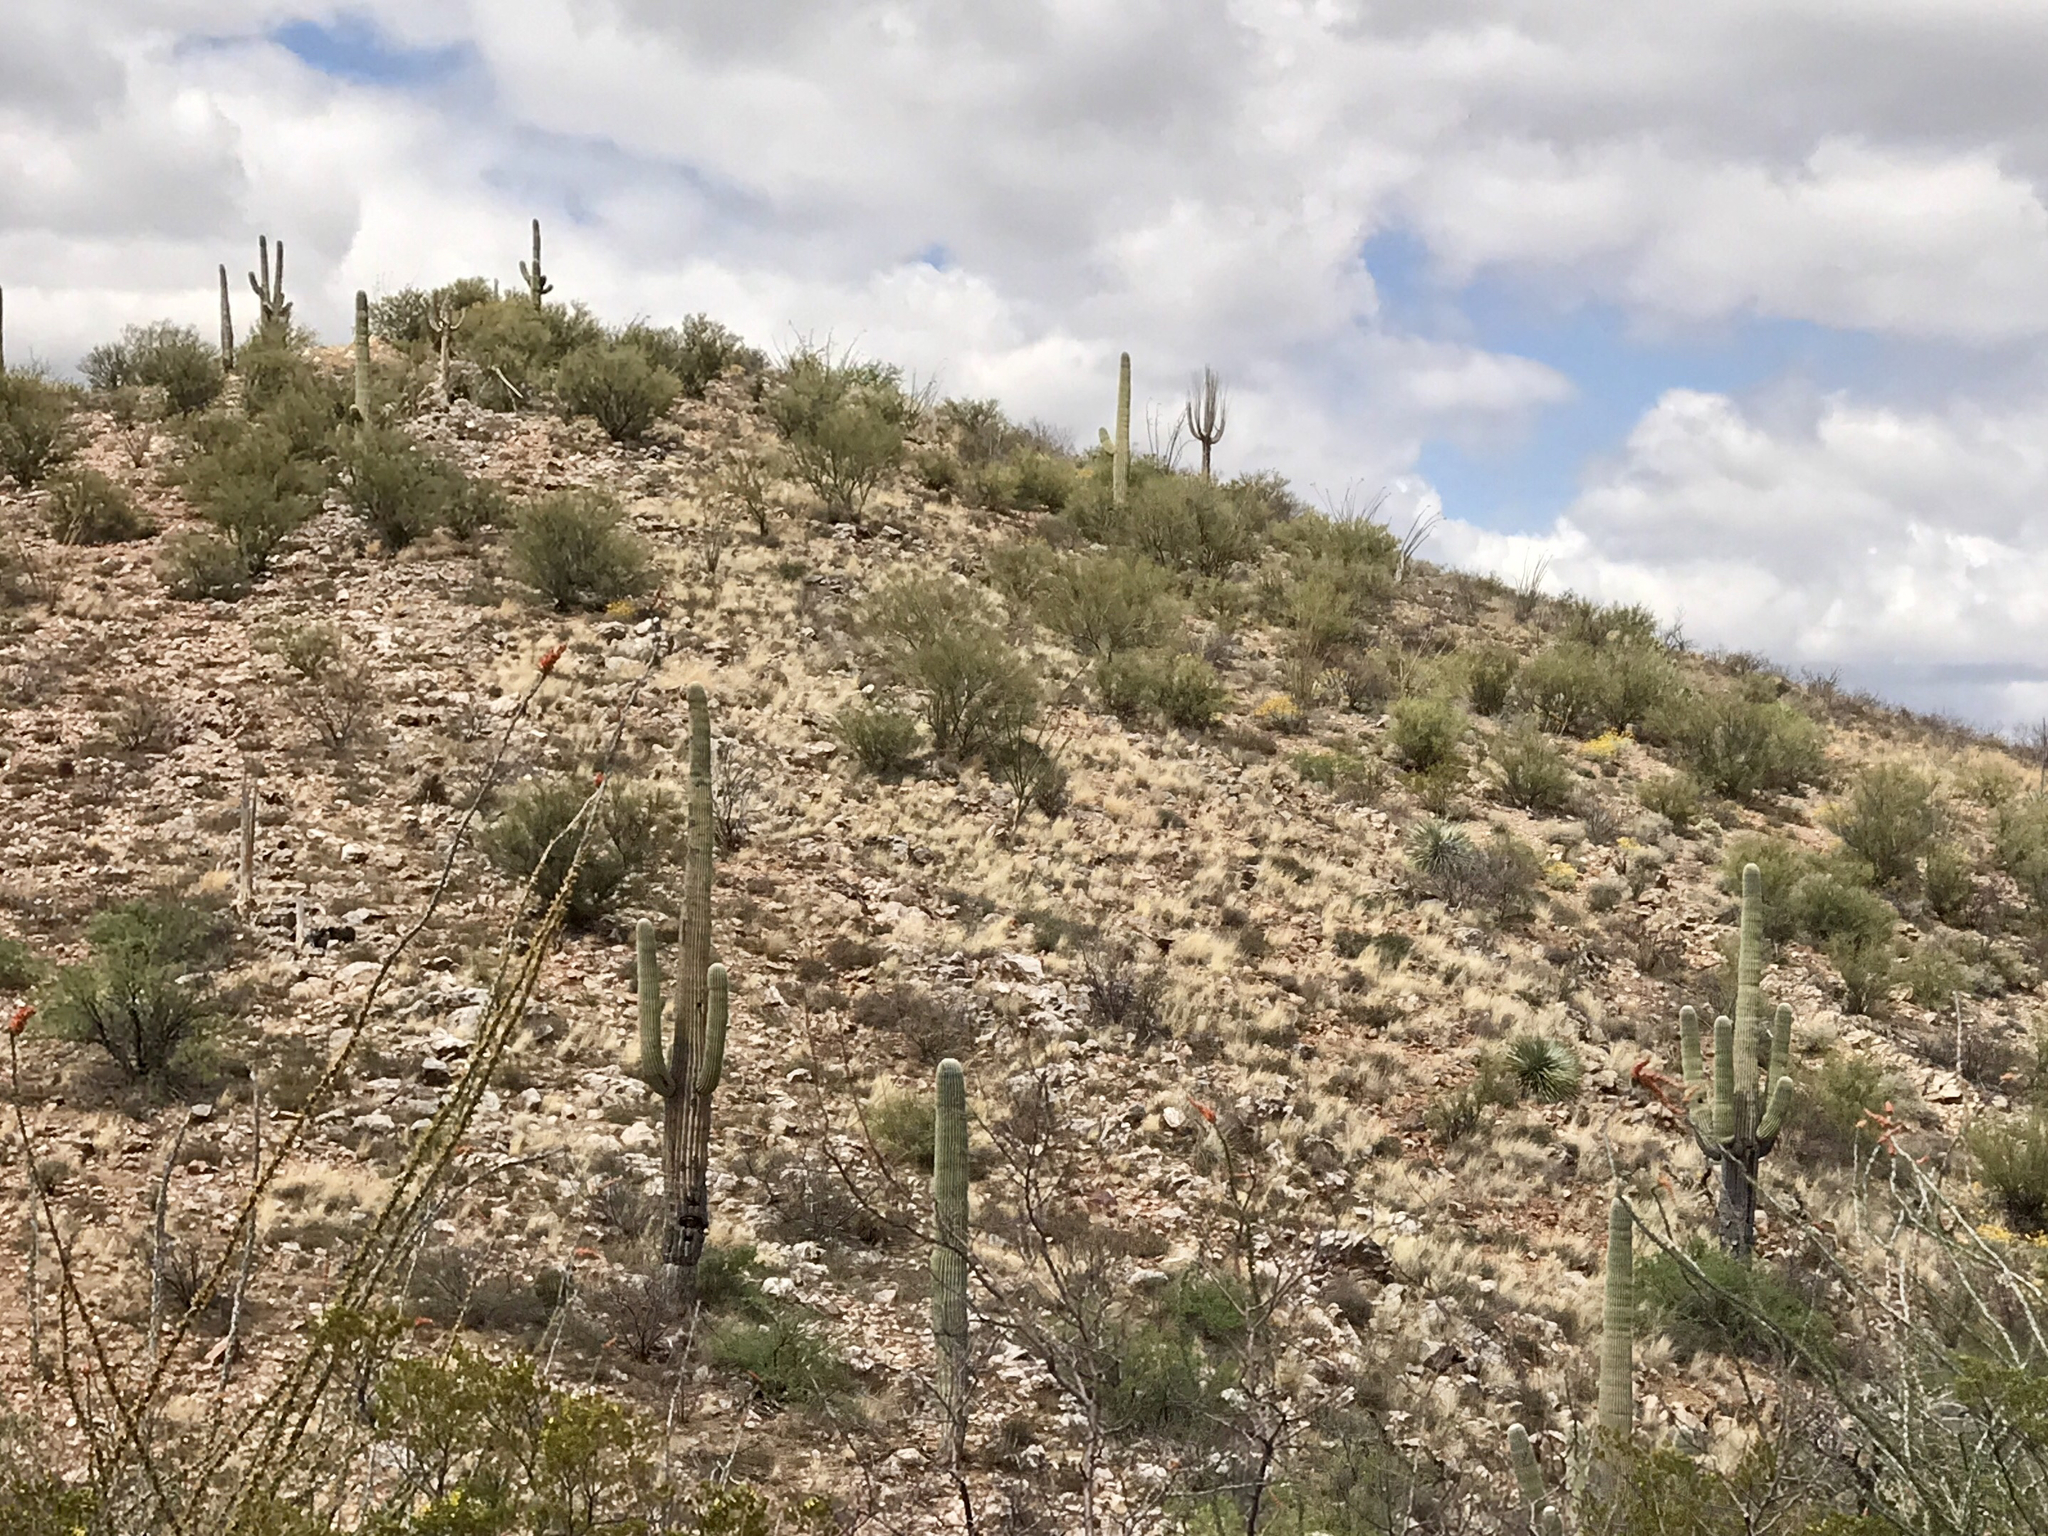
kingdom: Plantae
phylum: Tracheophyta
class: Magnoliopsida
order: Caryophyllales
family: Cactaceae
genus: Carnegiea
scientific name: Carnegiea gigantea
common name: Saguaro
